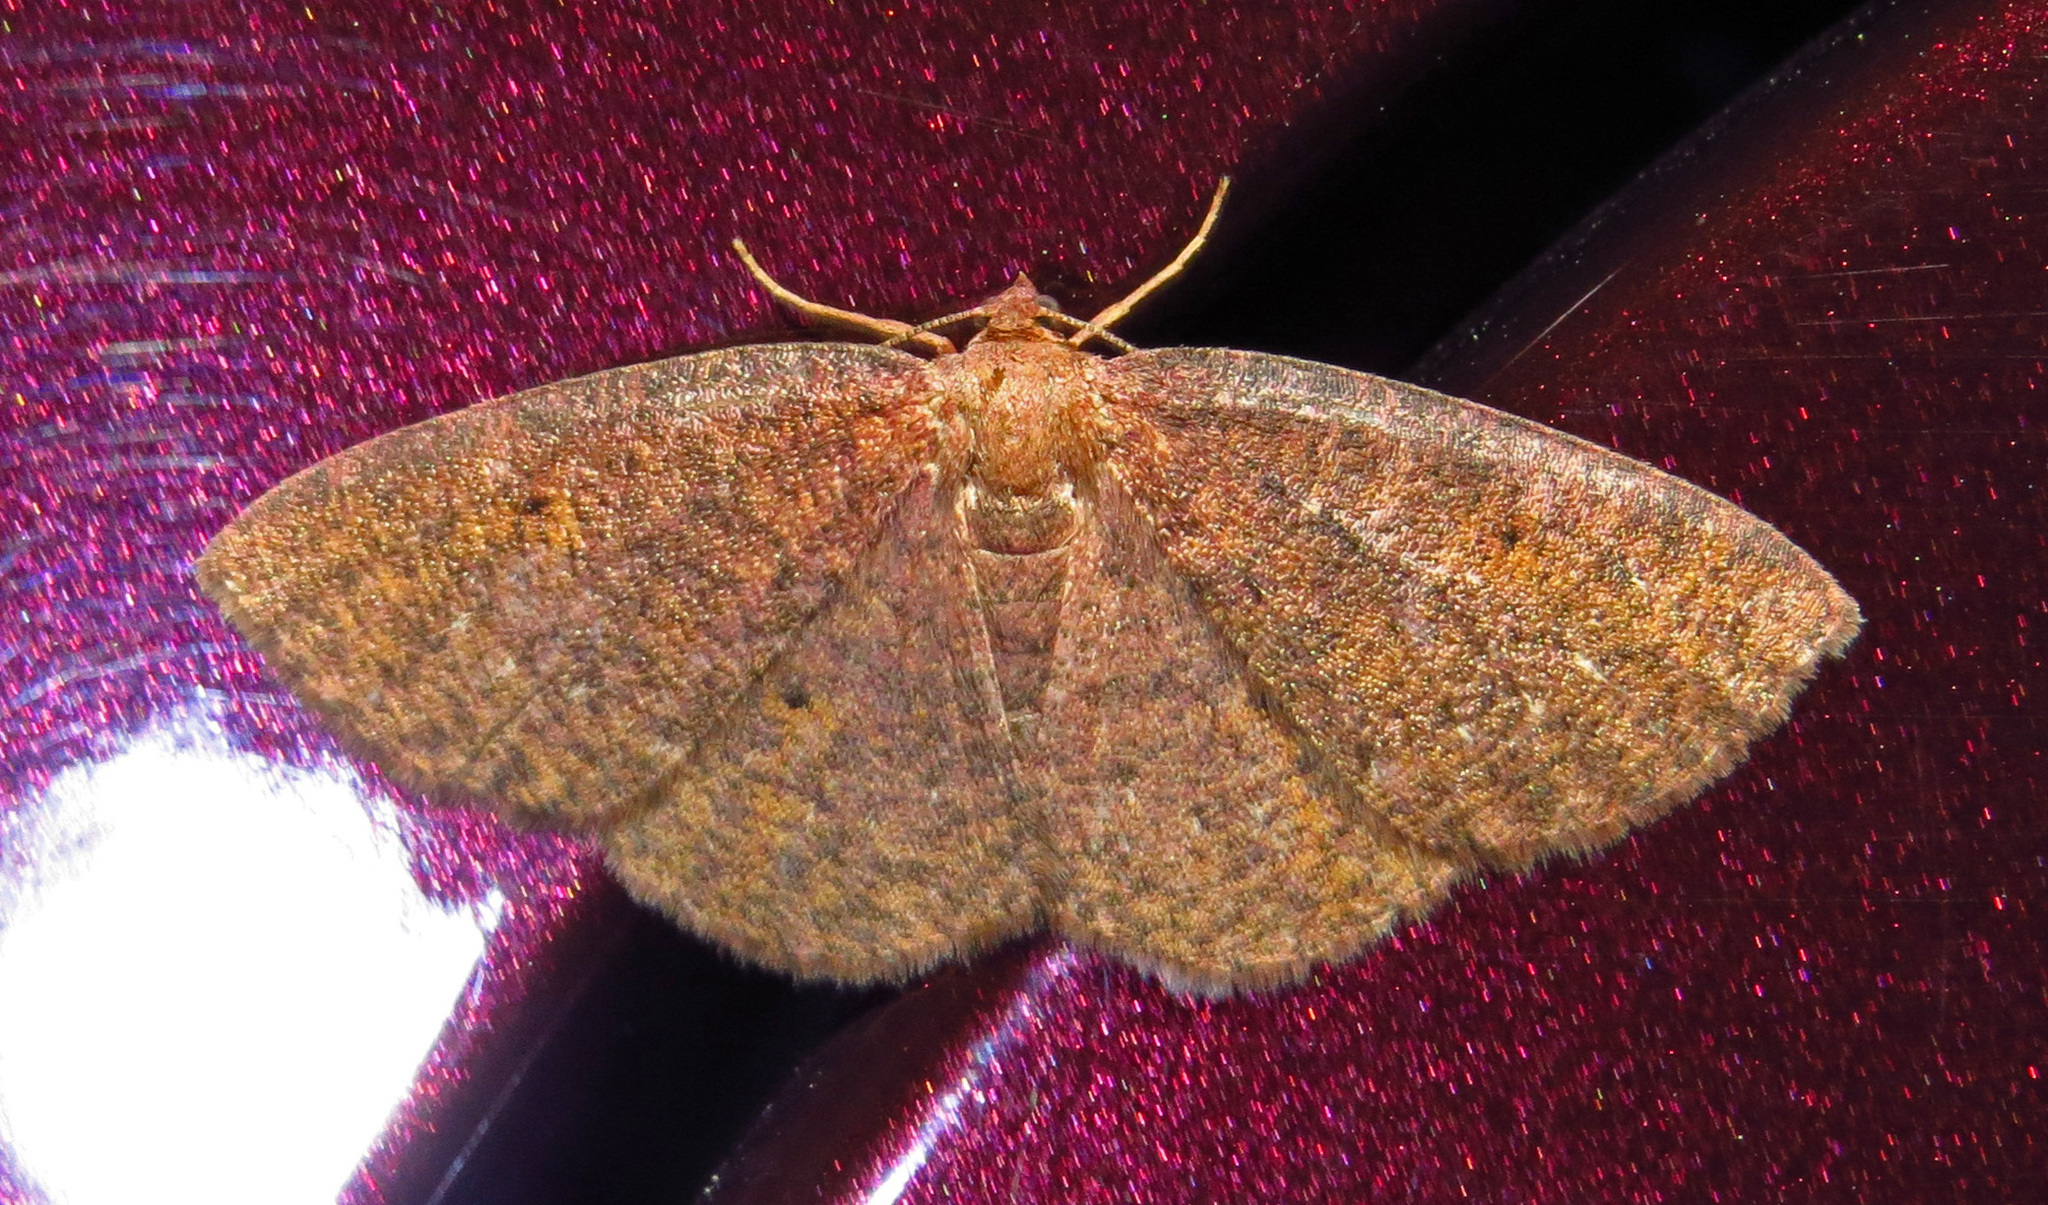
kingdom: Animalia
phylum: Arthropoda
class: Insecta
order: Lepidoptera
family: Geometridae
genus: Ilexia
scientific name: Ilexia intractata
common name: Black-dotted ruddy moth
